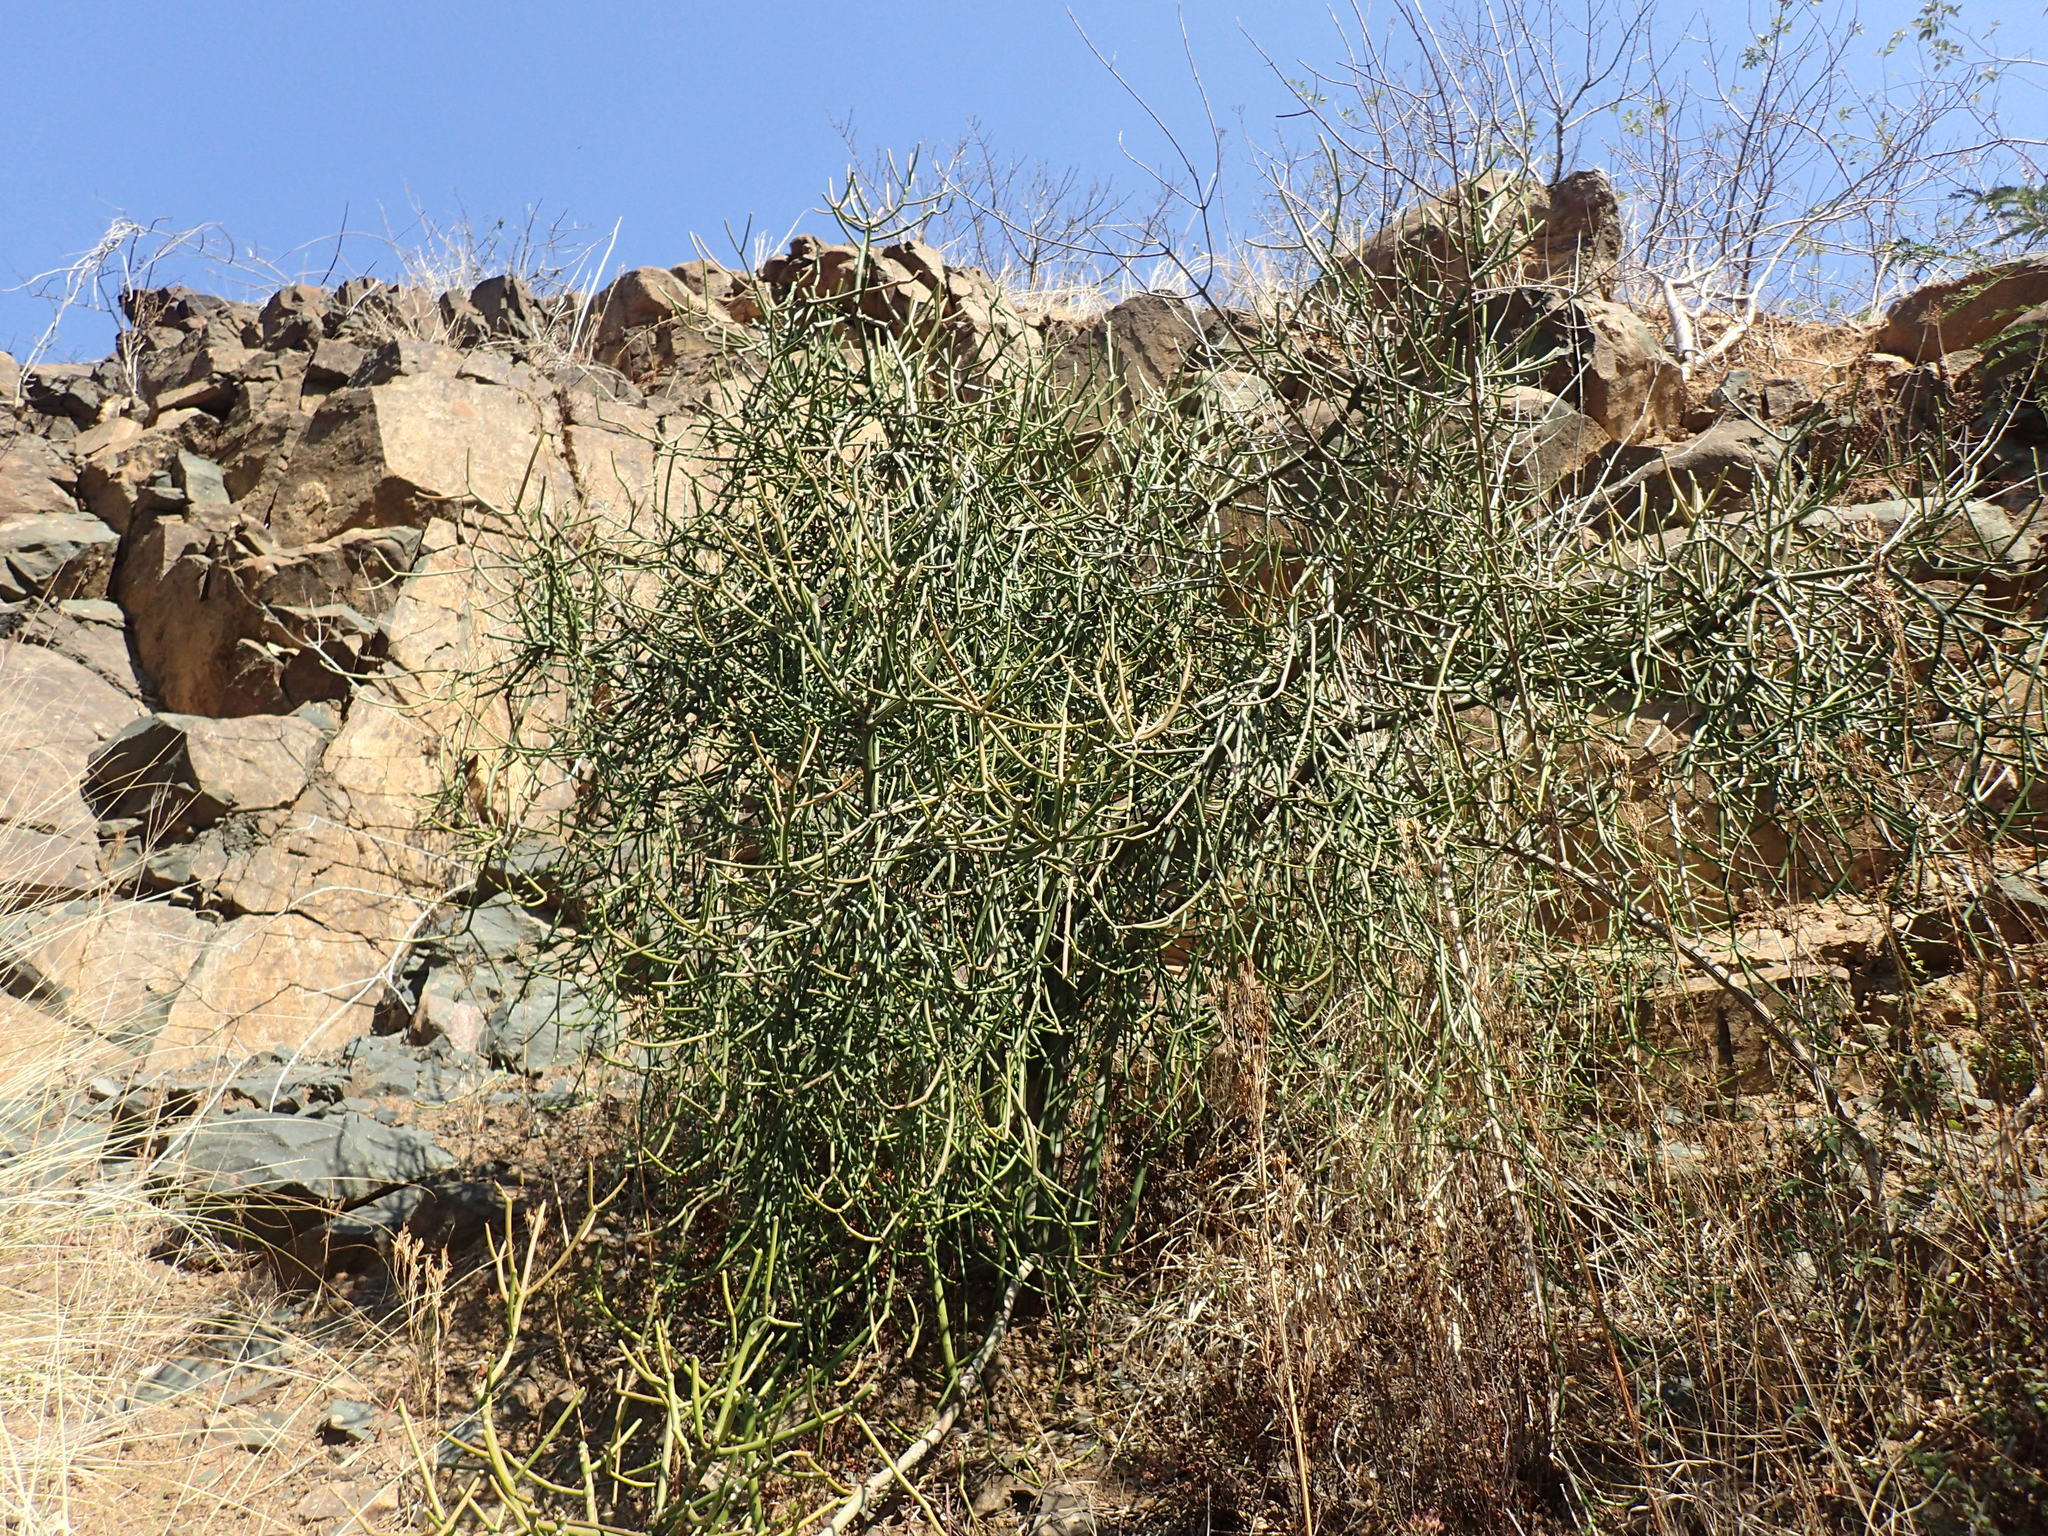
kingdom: Plantae
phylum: Tracheophyta
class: Magnoliopsida
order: Malpighiales
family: Euphorbiaceae
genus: Euphorbia
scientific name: Euphorbia tirucalli
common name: Indiantree spurge
